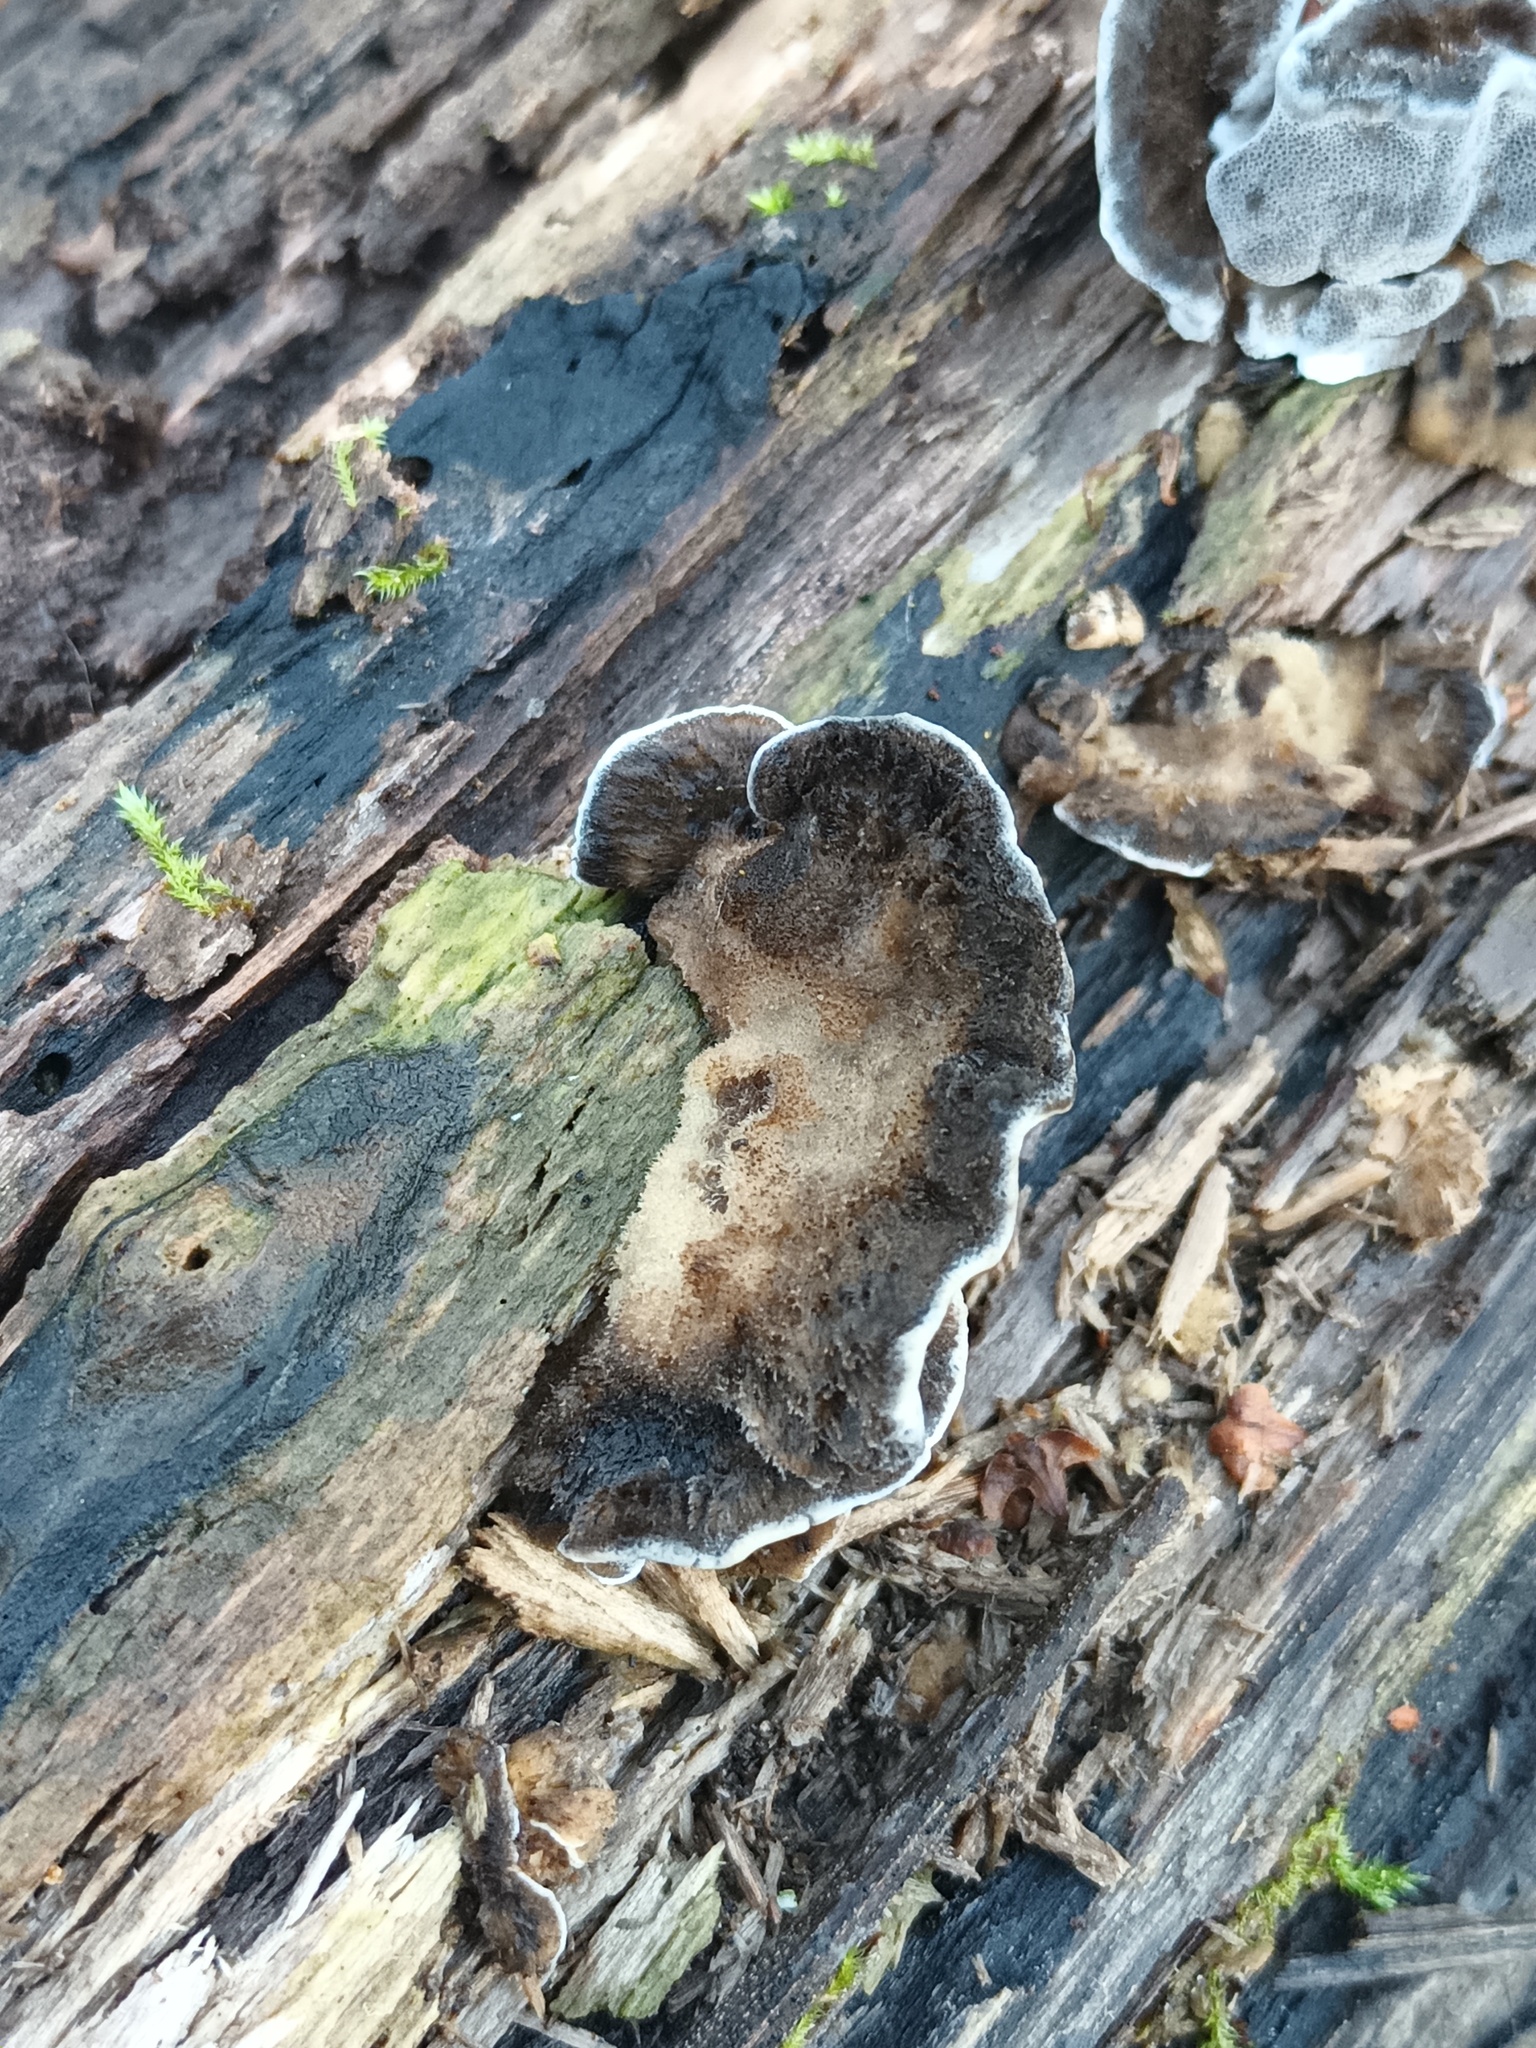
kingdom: Fungi
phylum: Basidiomycota
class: Agaricomycetes
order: Polyporales
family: Phanerochaetaceae
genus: Bjerkandera
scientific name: Bjerkandera adusta
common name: Smoky bracket
